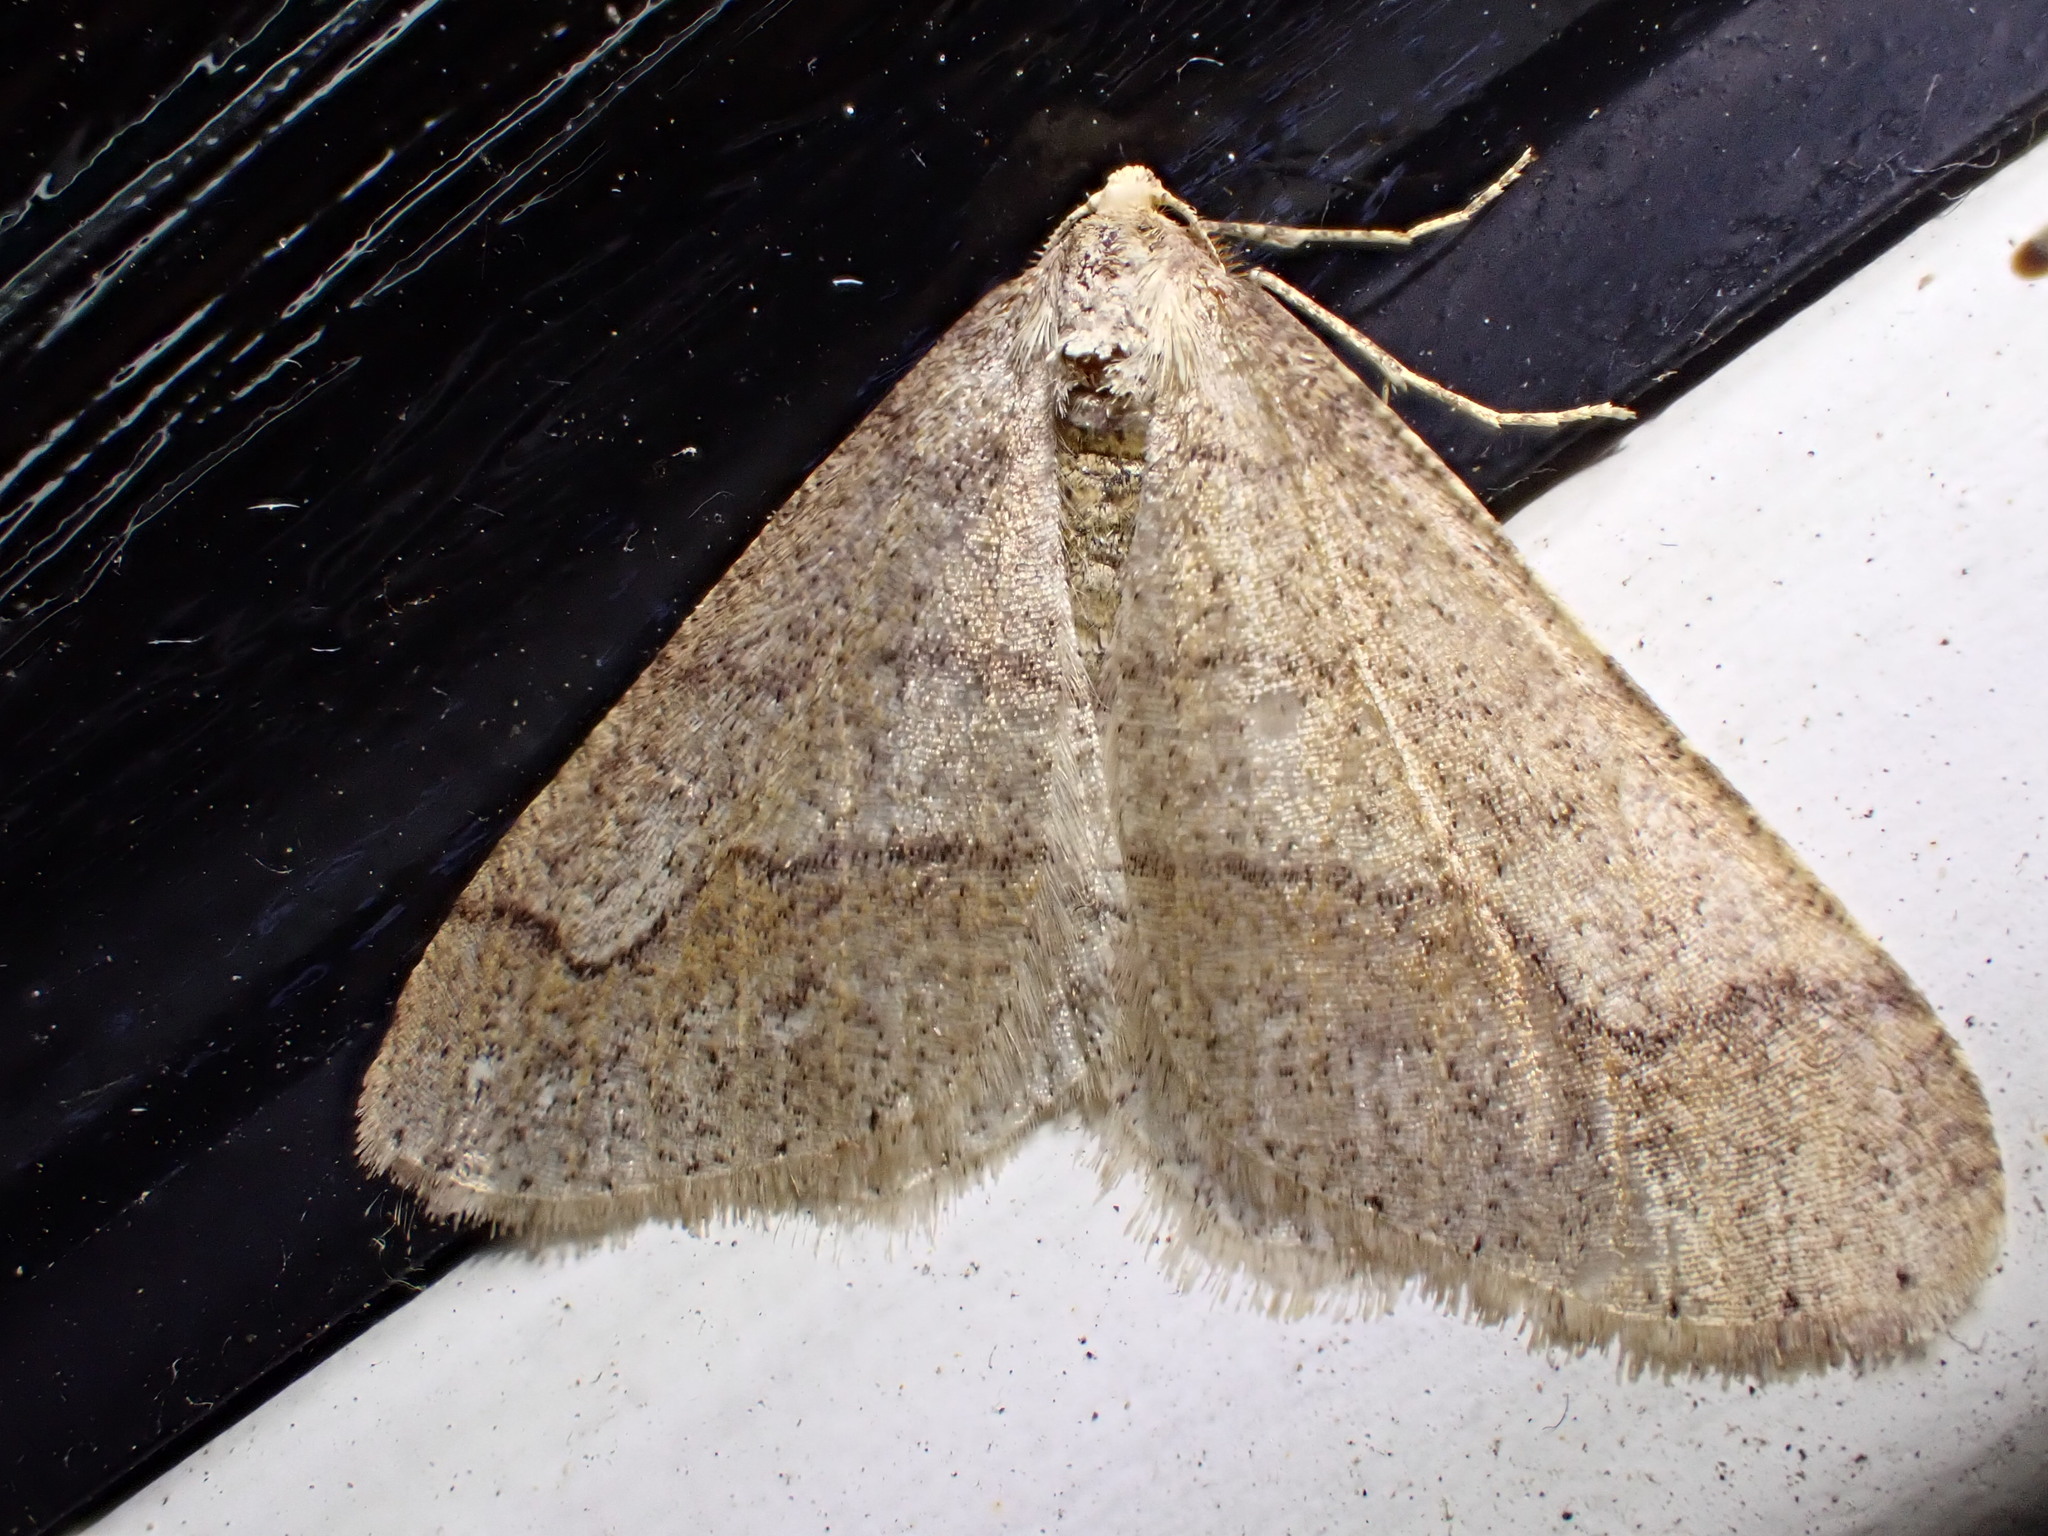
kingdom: Animalia
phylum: Arthropoda
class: Insecta
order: Lepidoptera
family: Geometridae
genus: Agriopis
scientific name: Agriopis marginaria
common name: Dotted border
